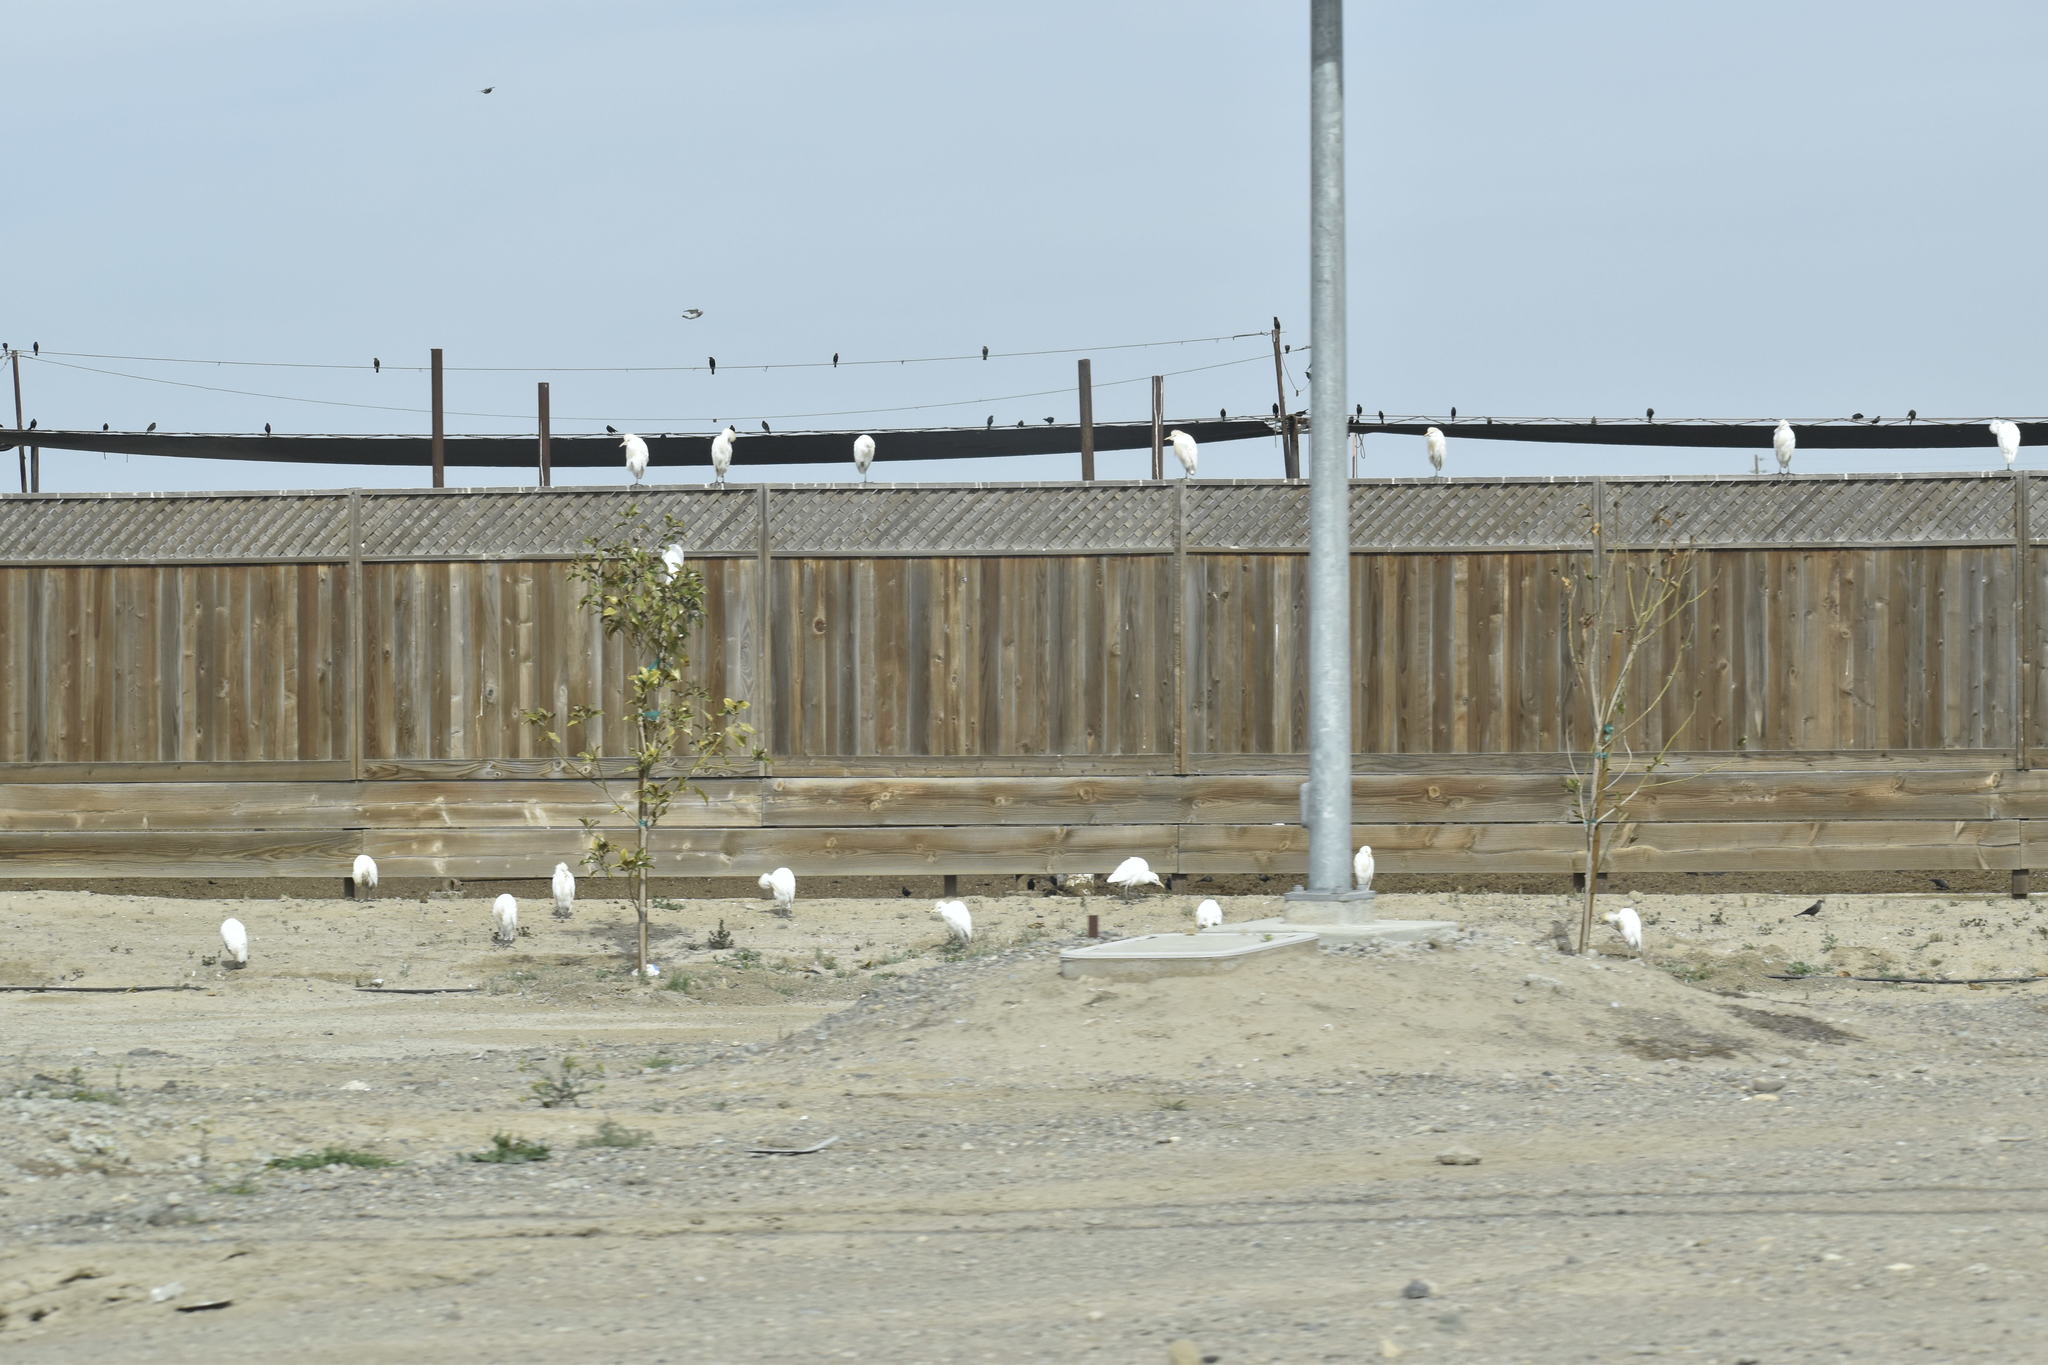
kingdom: Animalia
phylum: Chordata
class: Aves
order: Pelecaniformes
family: Ardeidae
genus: Bubulcus
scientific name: Bubulcus ibis
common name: Cattle egret
